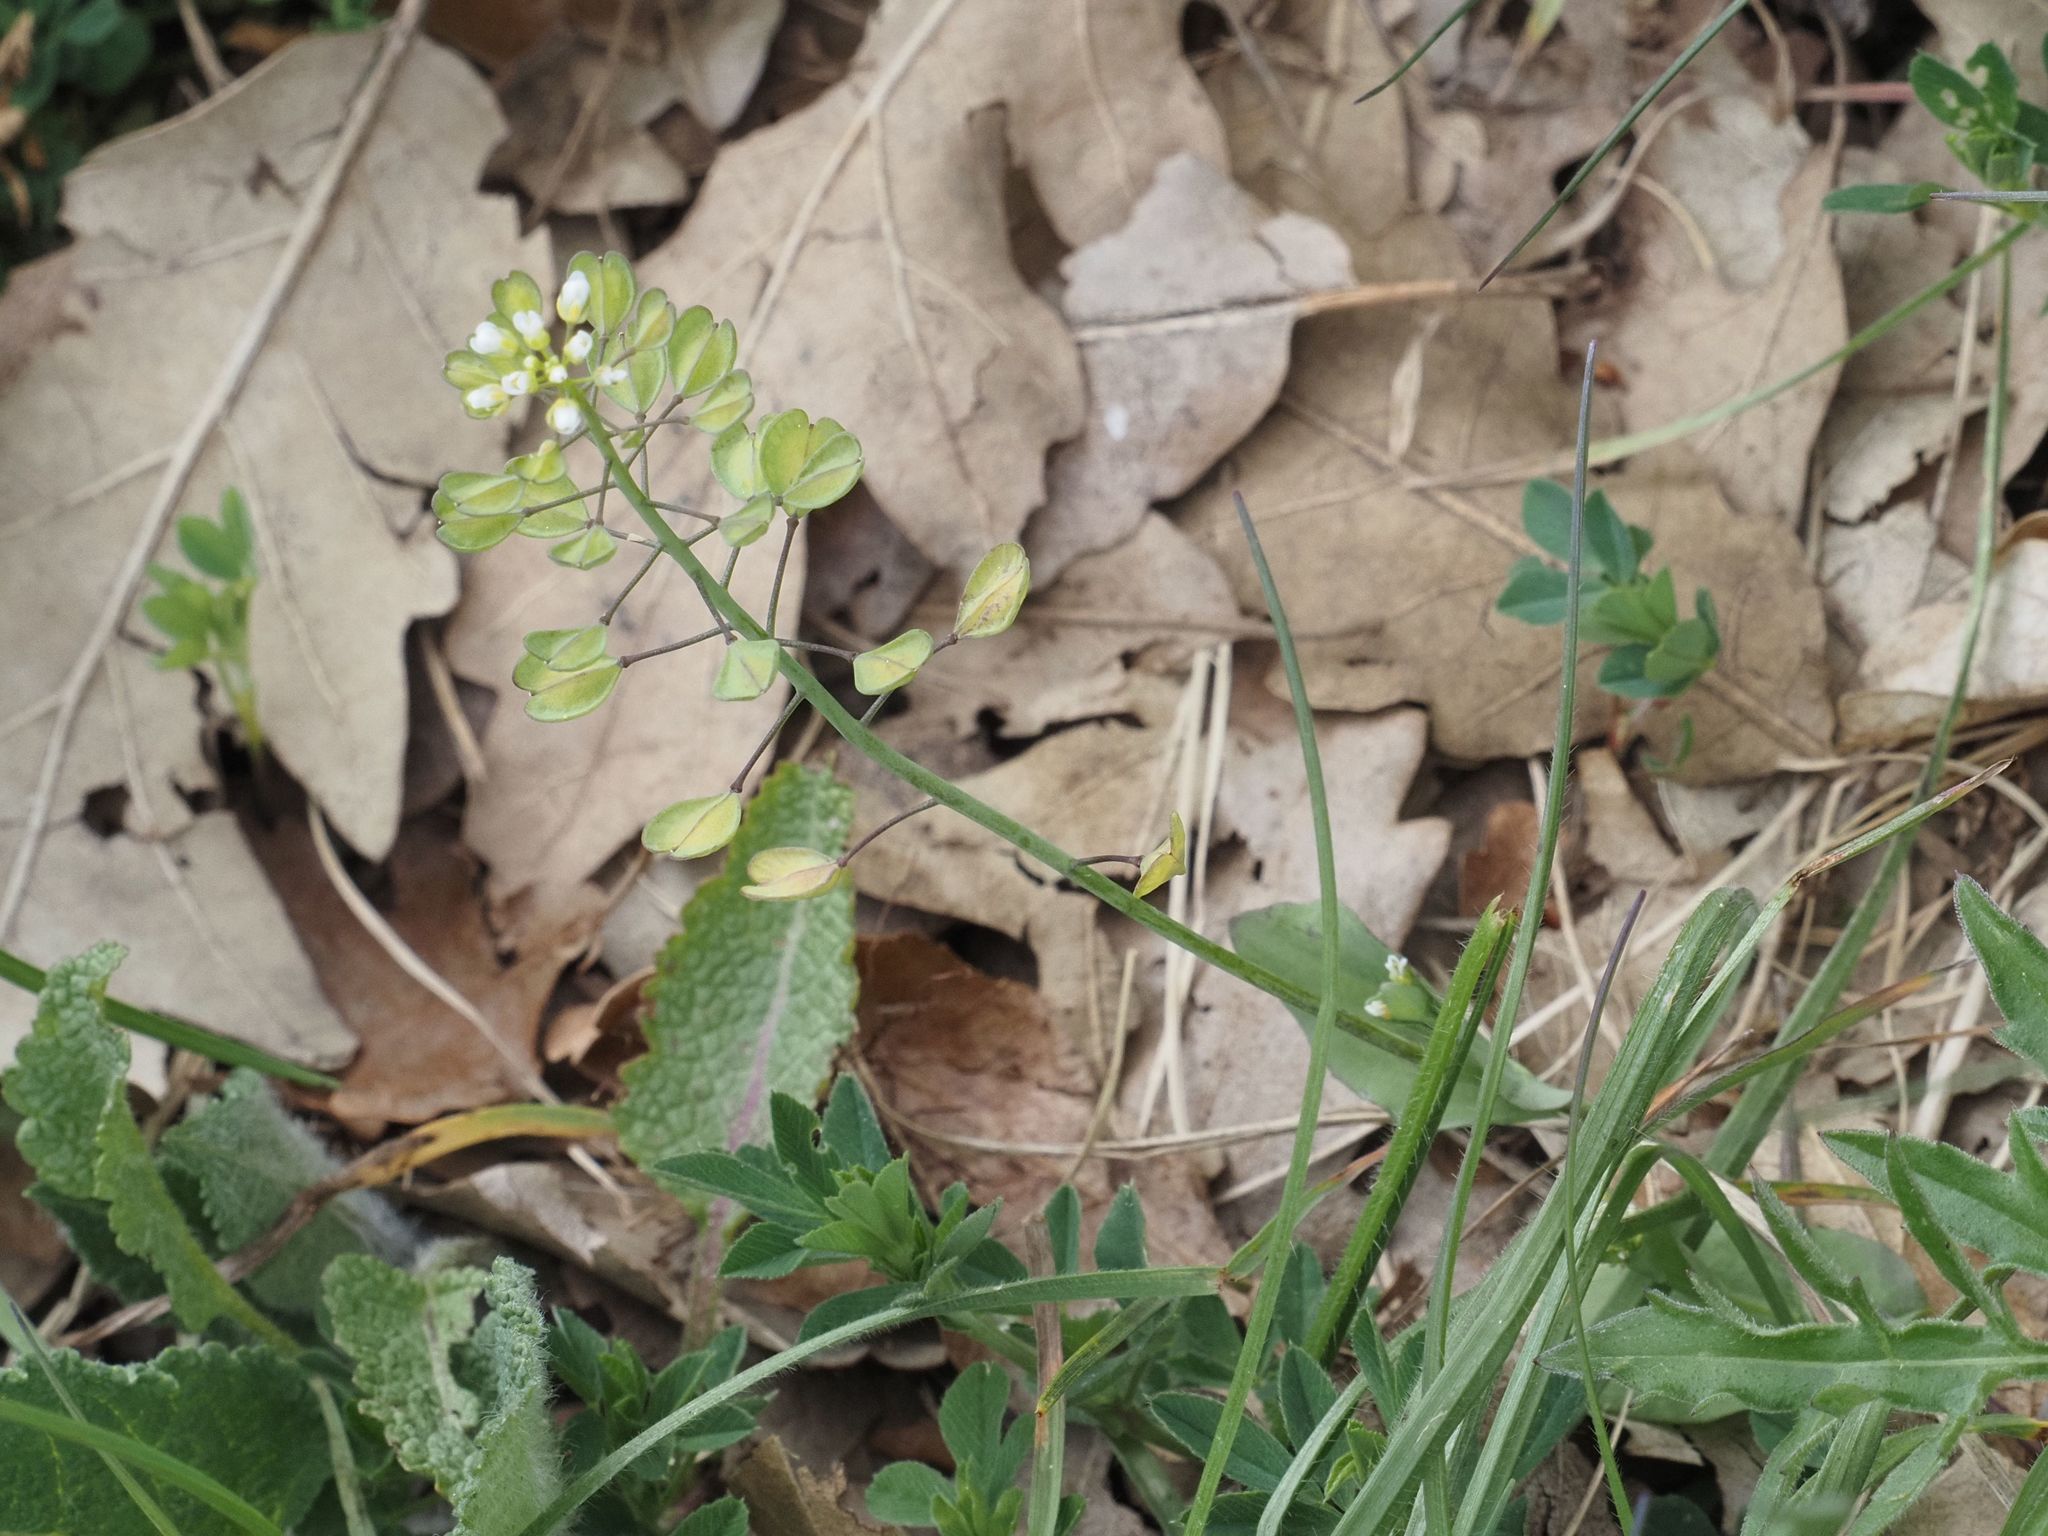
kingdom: Plantae
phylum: Tracheophyta
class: Magnoliopsida
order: Brassicales
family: Brassicaceae
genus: Noccaea
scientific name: Noccaea perfoliata
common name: Perfoliate pennycress
